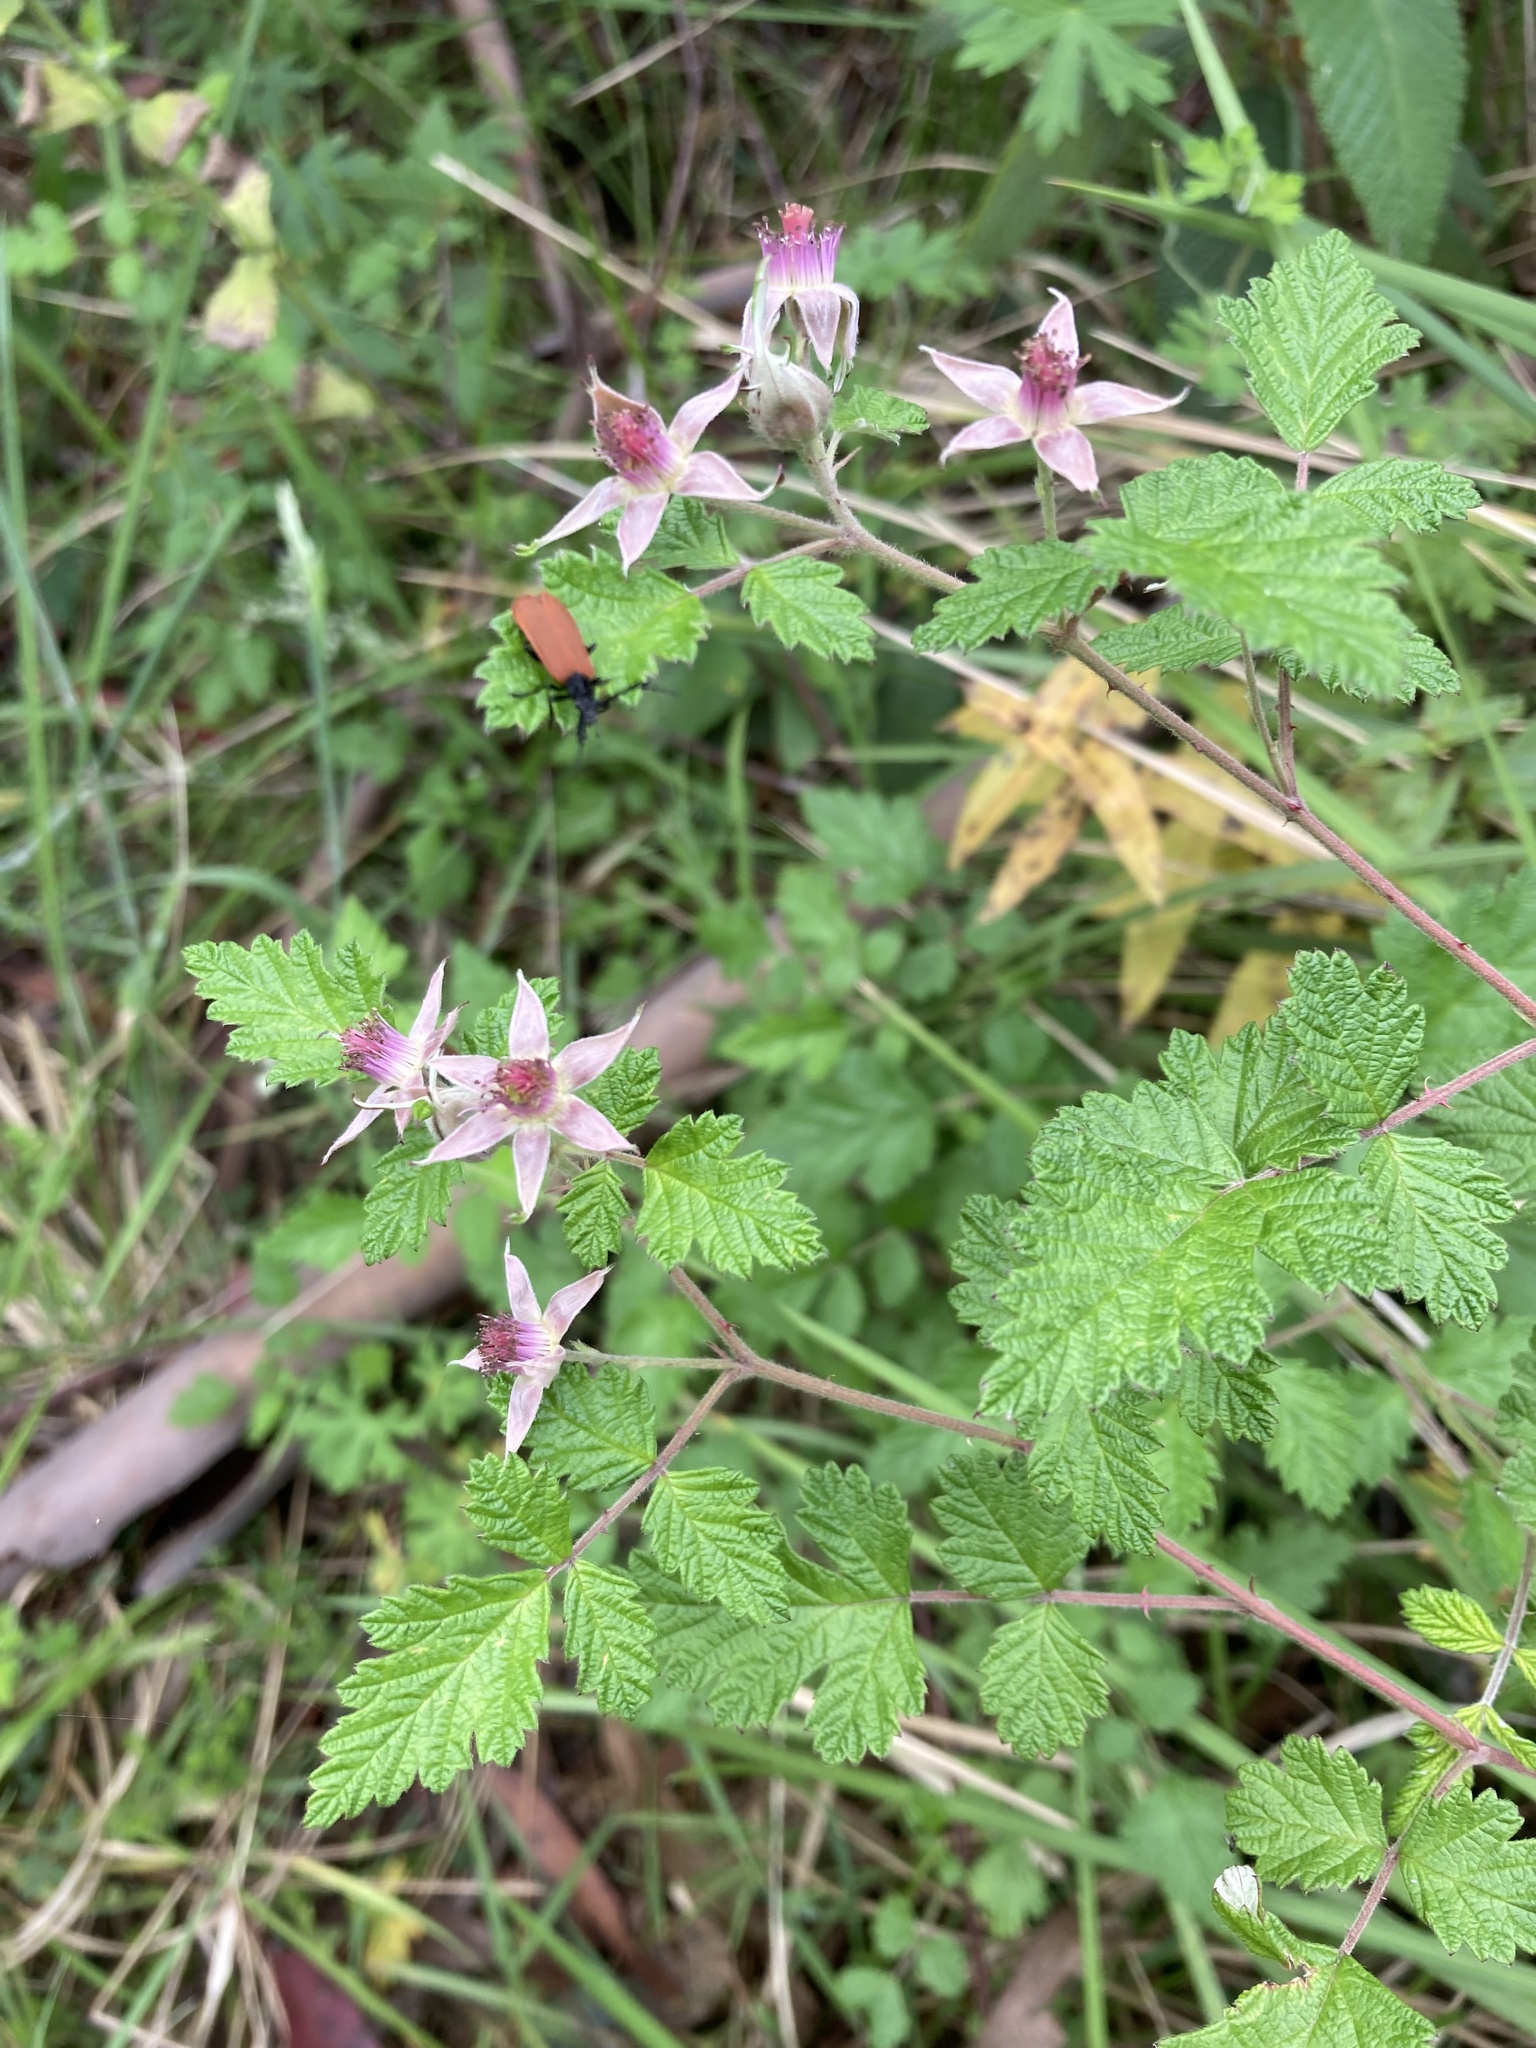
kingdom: Plantae
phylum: Tracheophyta
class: Magnoliopsida
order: Rosales
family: Rosaceae
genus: Rubus
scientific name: Rubus parvifolius
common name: Threeleaf blackberry
